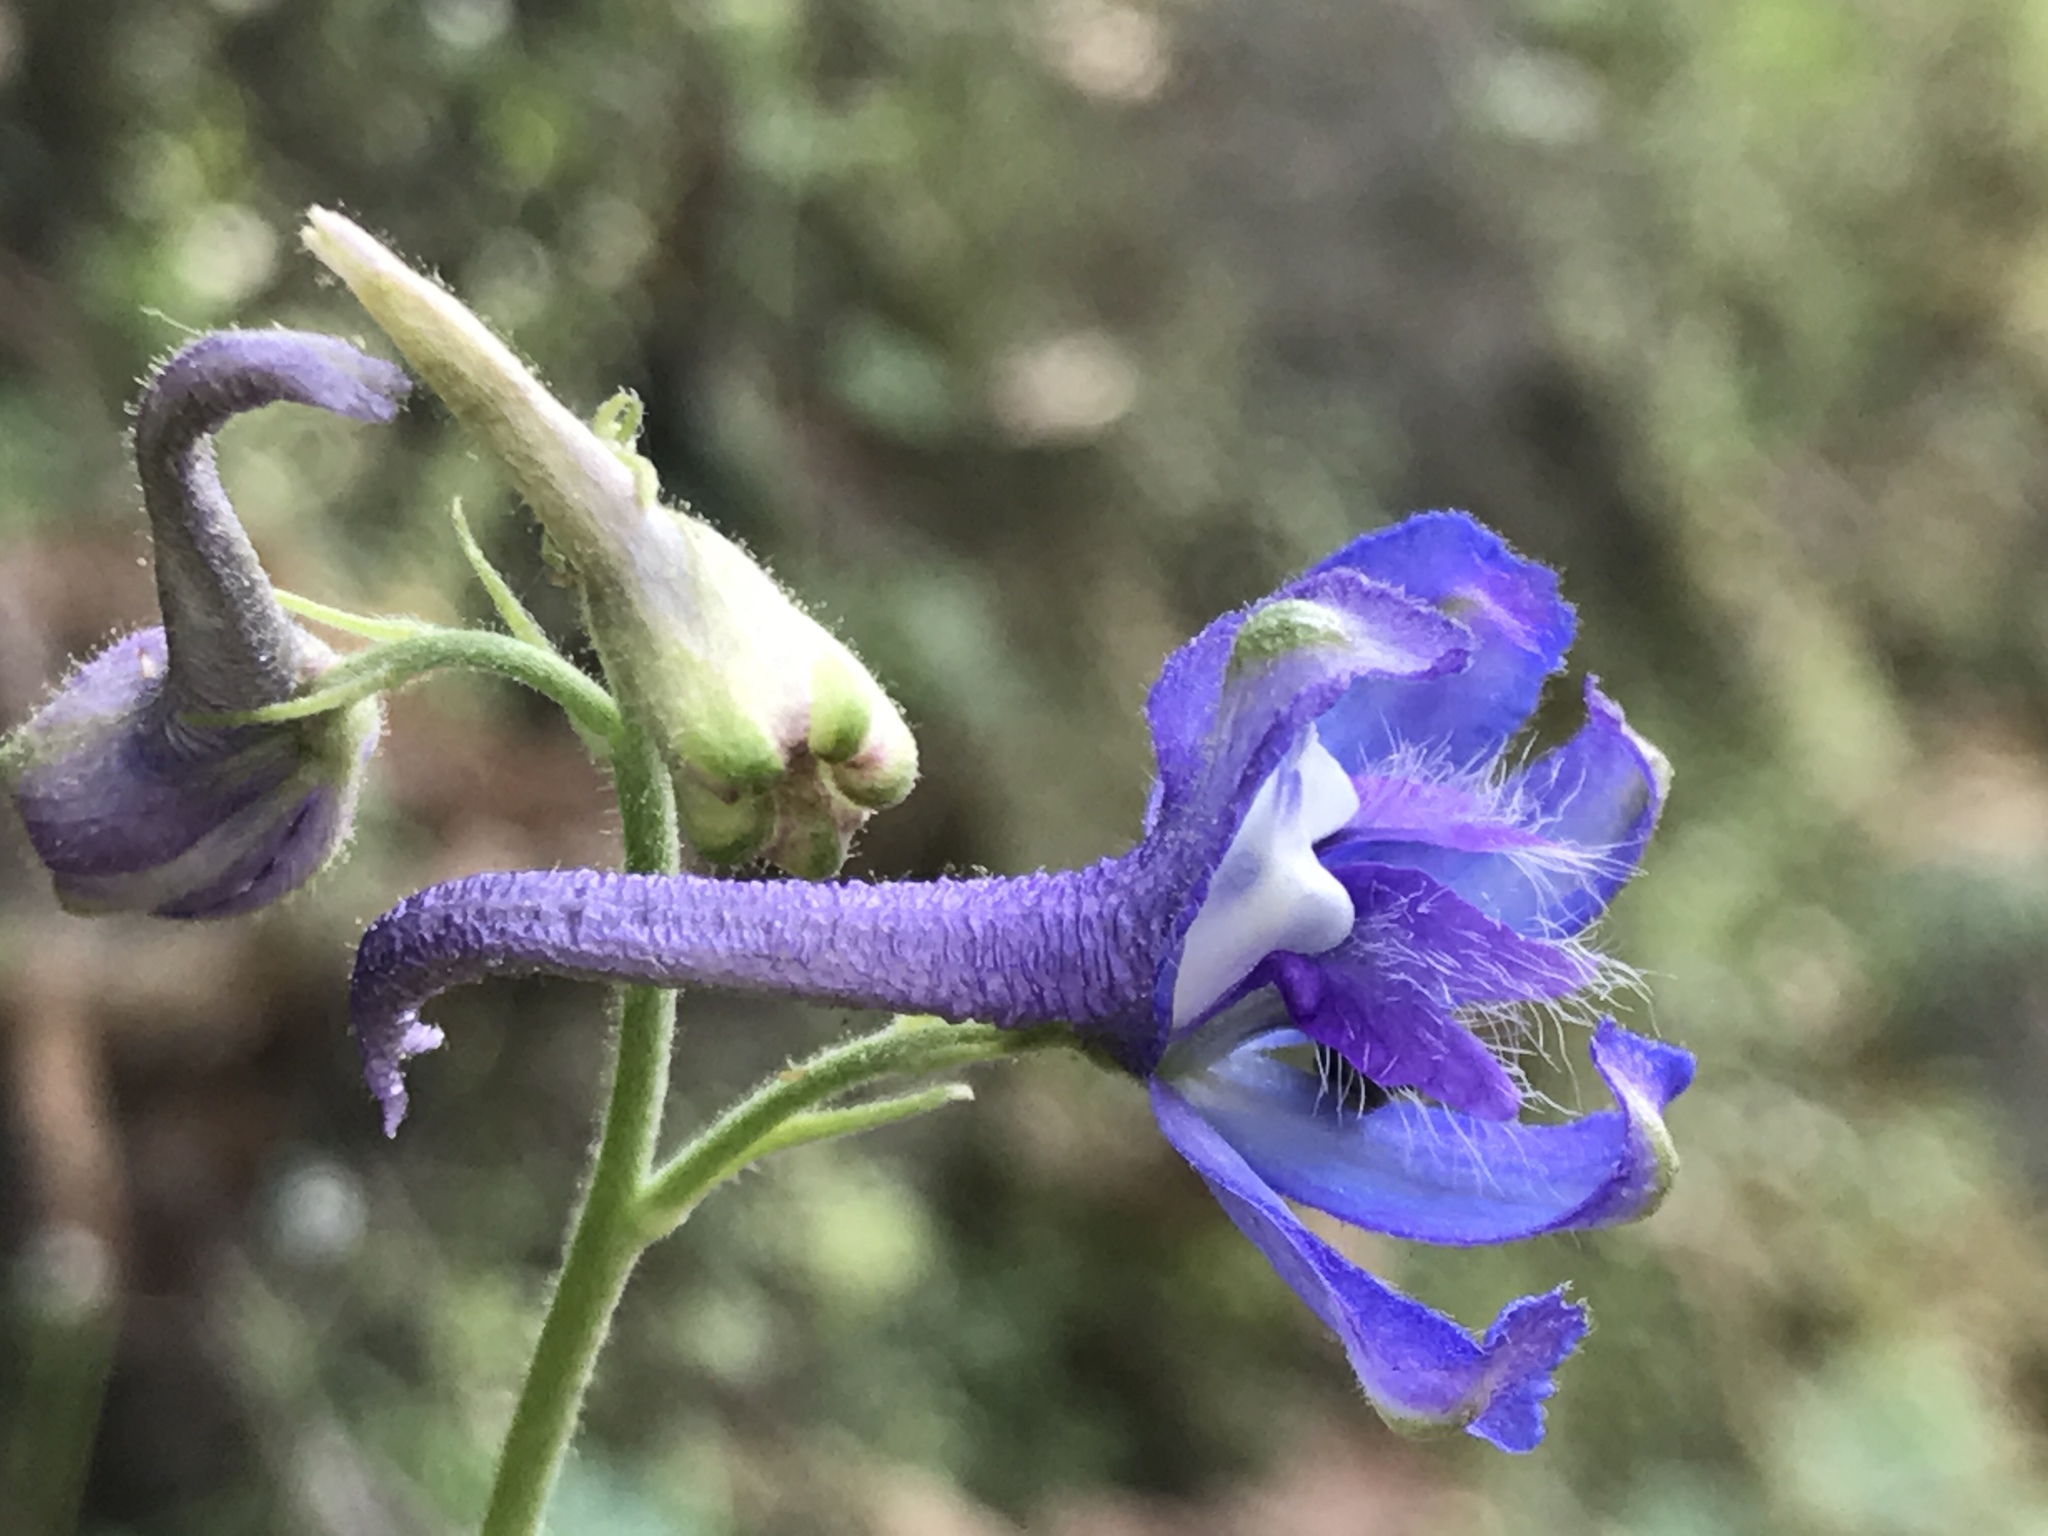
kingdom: Plantae
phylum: Tracheophyta
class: Magnoliopsida
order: Ranunculales
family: Ranunculaceae
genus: Delphinium
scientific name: Delphinium madrense
